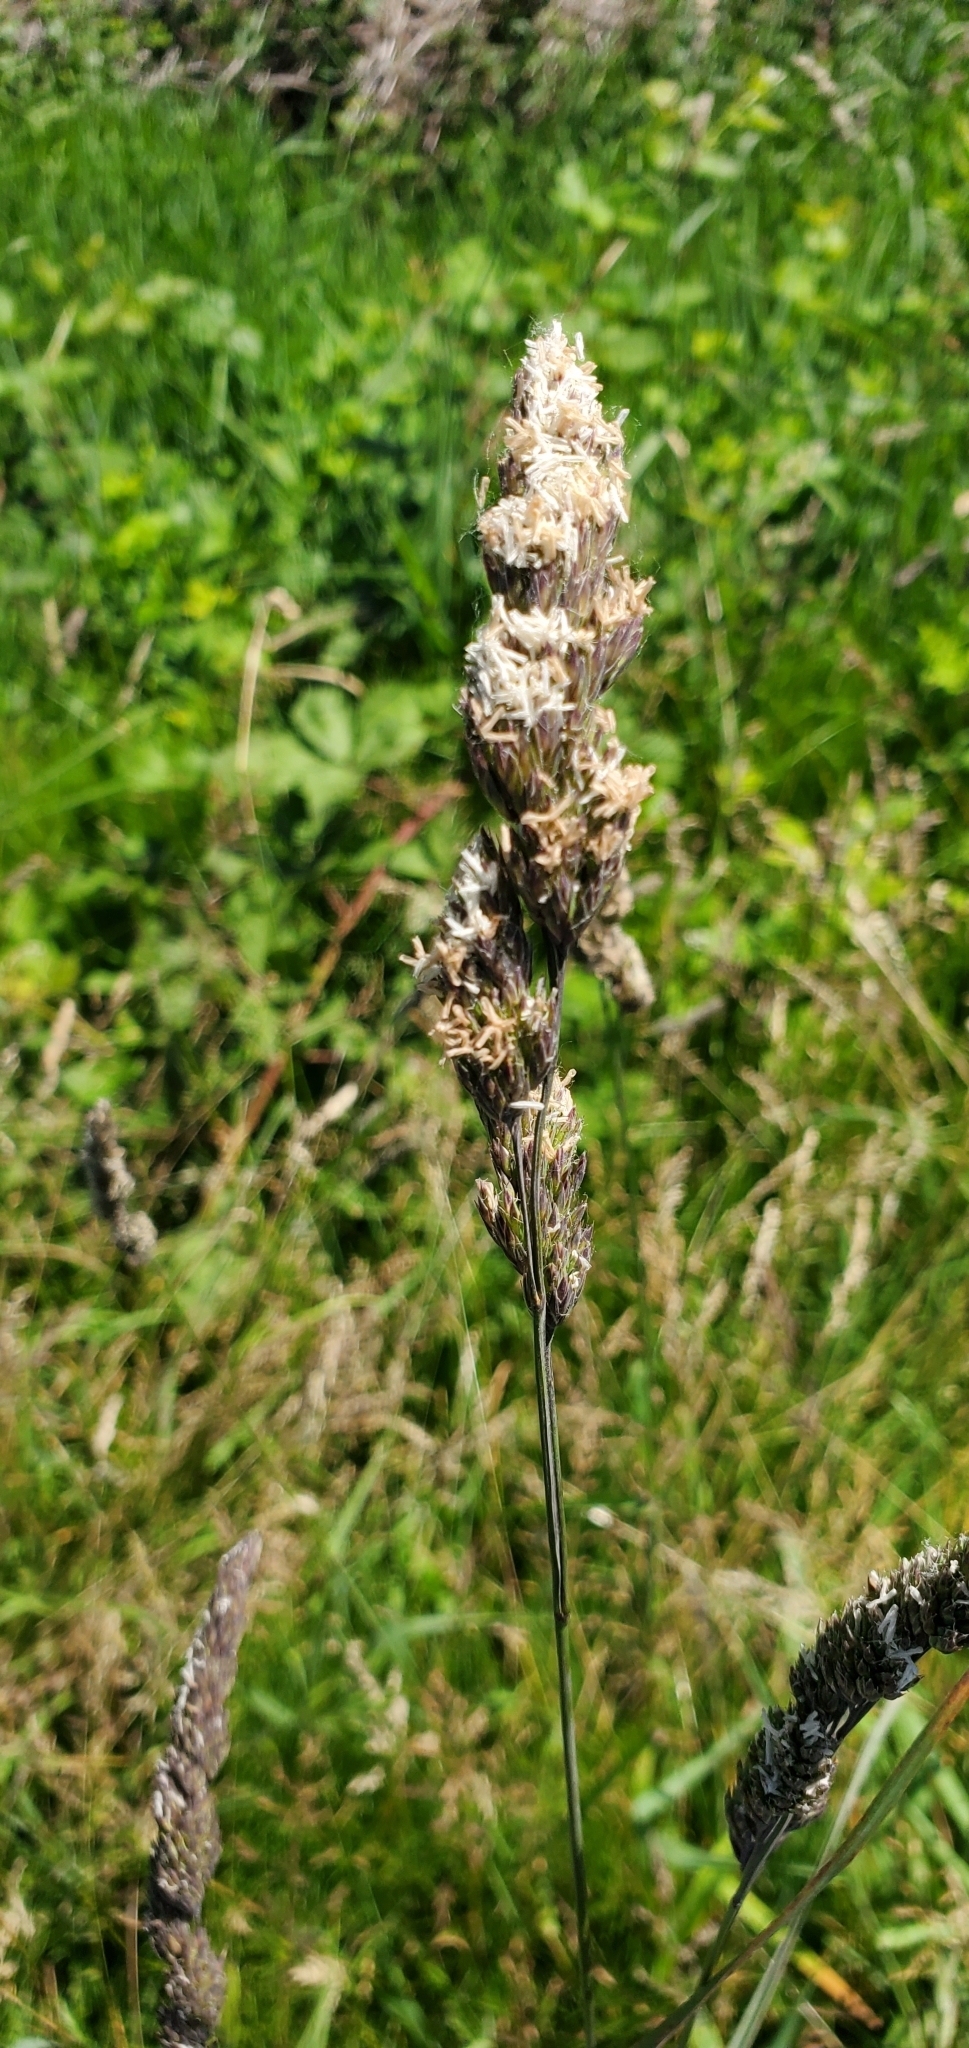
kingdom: Plantae
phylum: Tracheophyta
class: Liliopsida
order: Poales
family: Poaceae
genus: Dactylis
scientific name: Dactylis glomerata
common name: Orchardgrass
